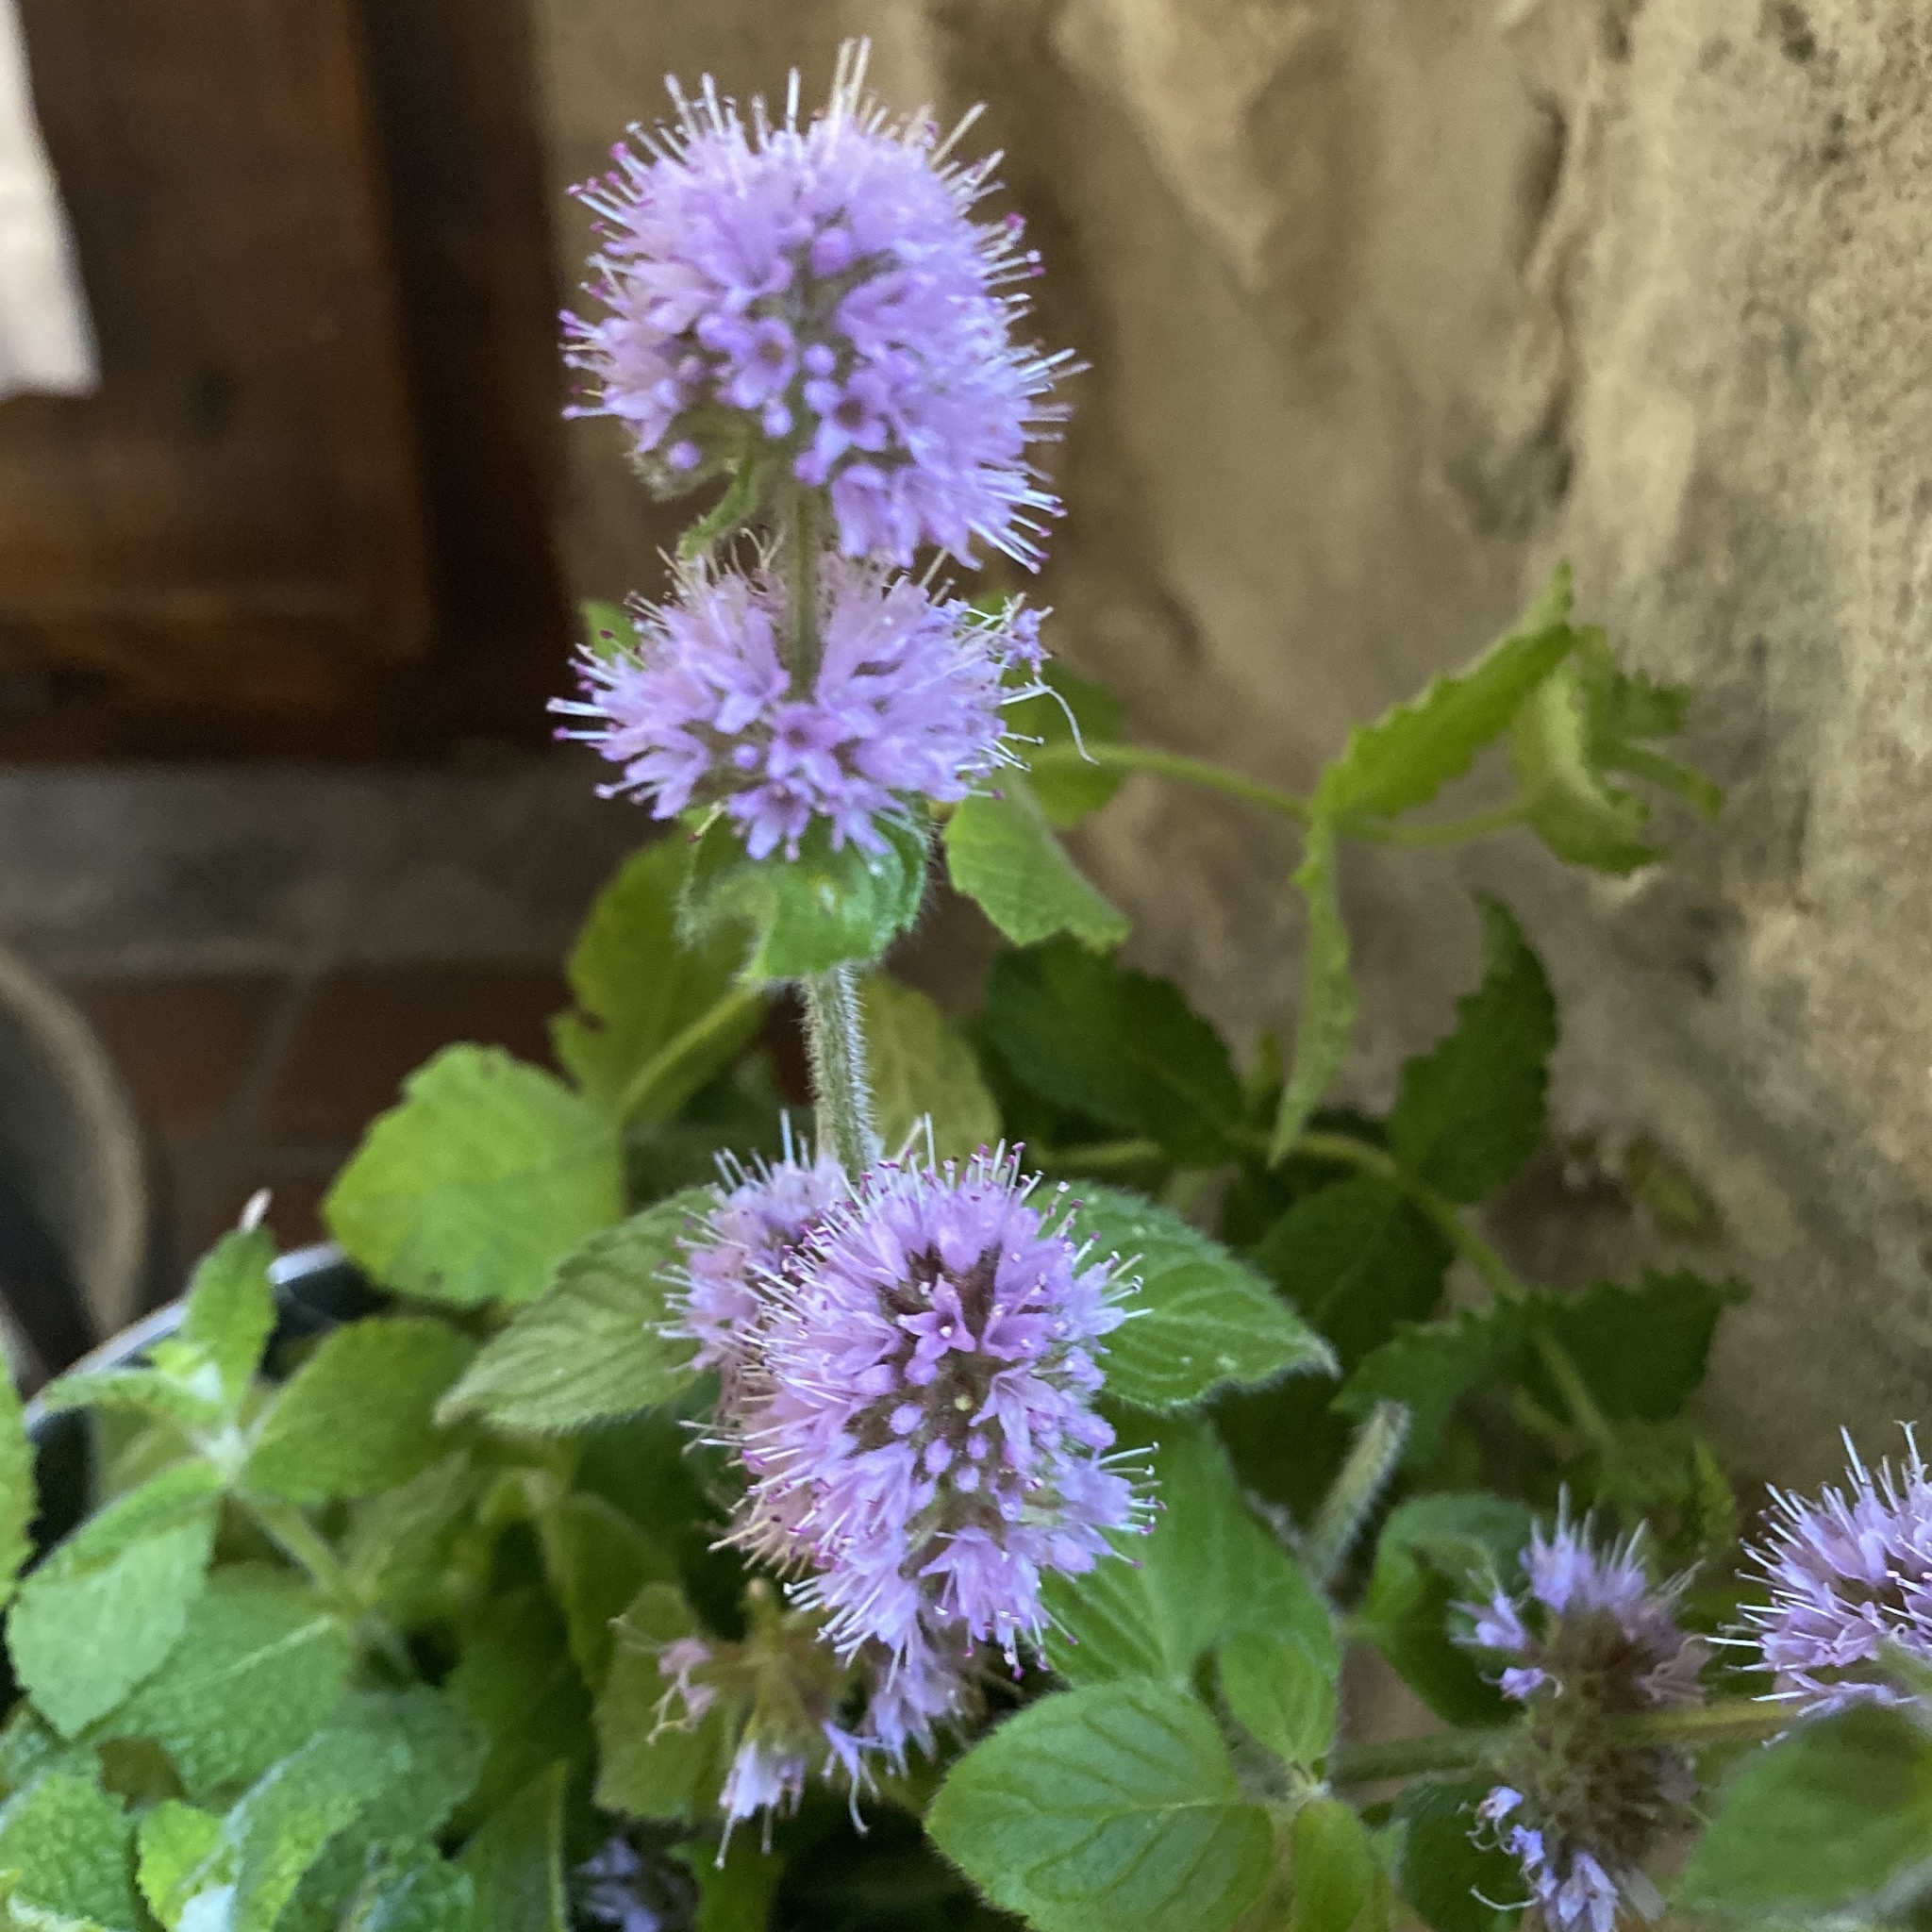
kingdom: Plantae
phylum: Tracheophyta
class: Magnoliopsida
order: Lamiales
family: Lamiaceae
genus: Mentha
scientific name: Mentha aquatica
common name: Water mint
